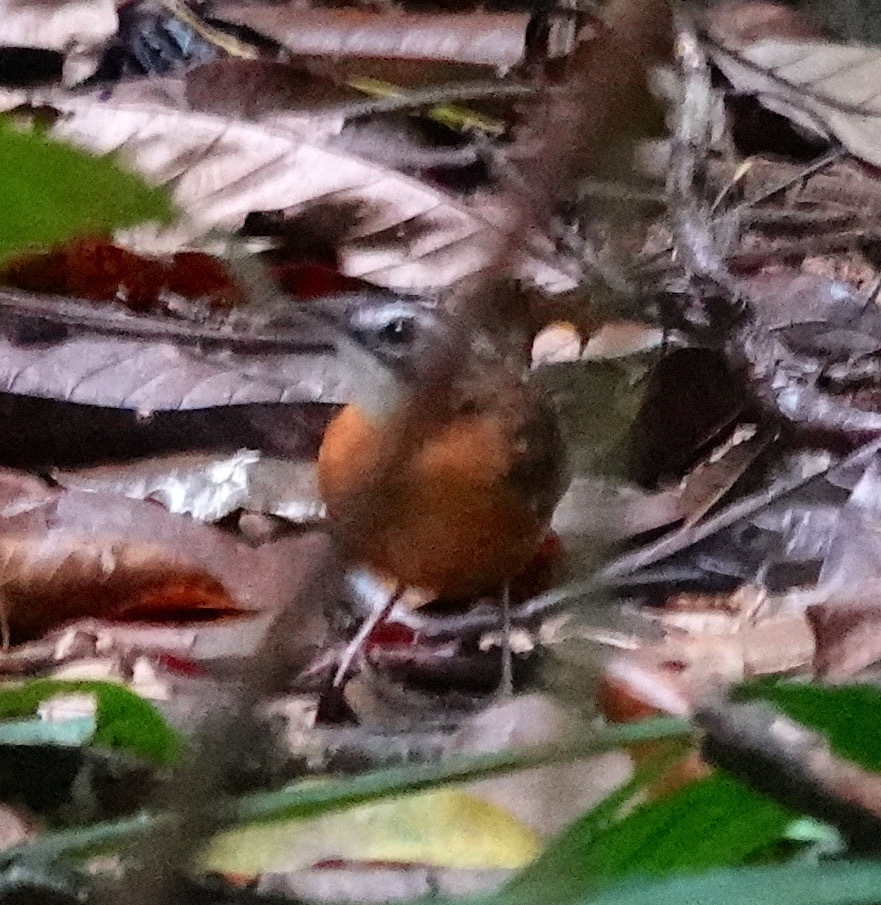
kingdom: Animalia
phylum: Chordata
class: Aves
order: Passeriformes
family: Pellorneidae
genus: Pellorneum
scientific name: Pellorneum capistratum
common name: Black-capped babbler
